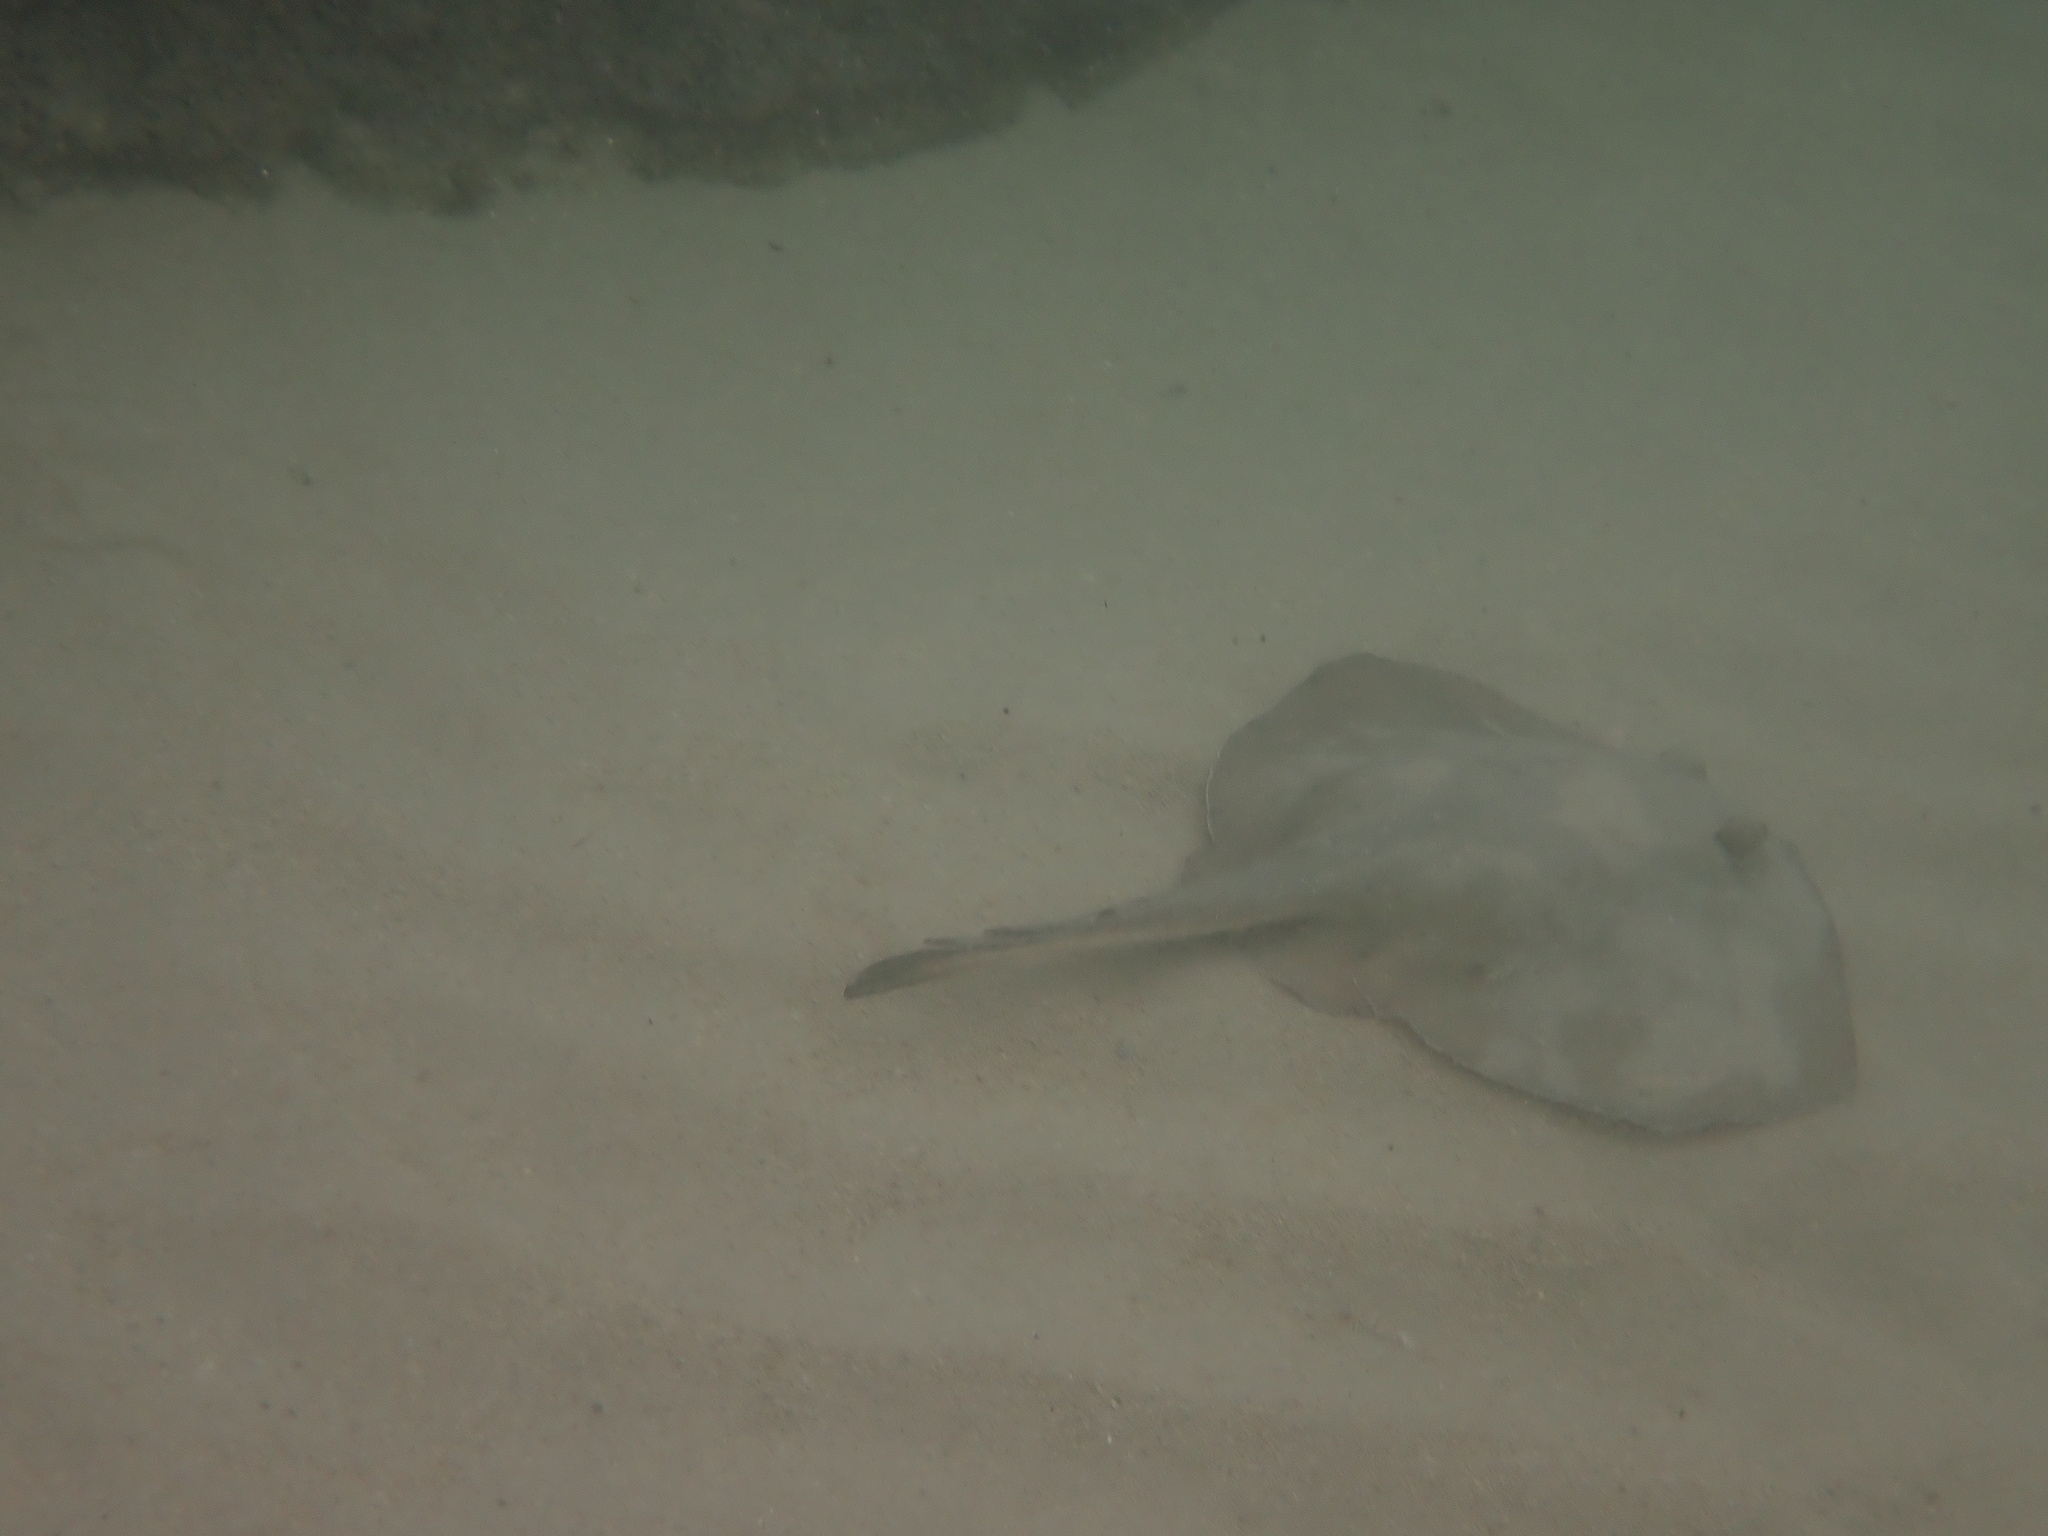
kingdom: Animalia
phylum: Chordata
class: Elasmobranchii
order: Myliobatiformes
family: Urolophidae
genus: Trygonoptera
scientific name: Trygonoptera testacea
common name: Common stingaree
